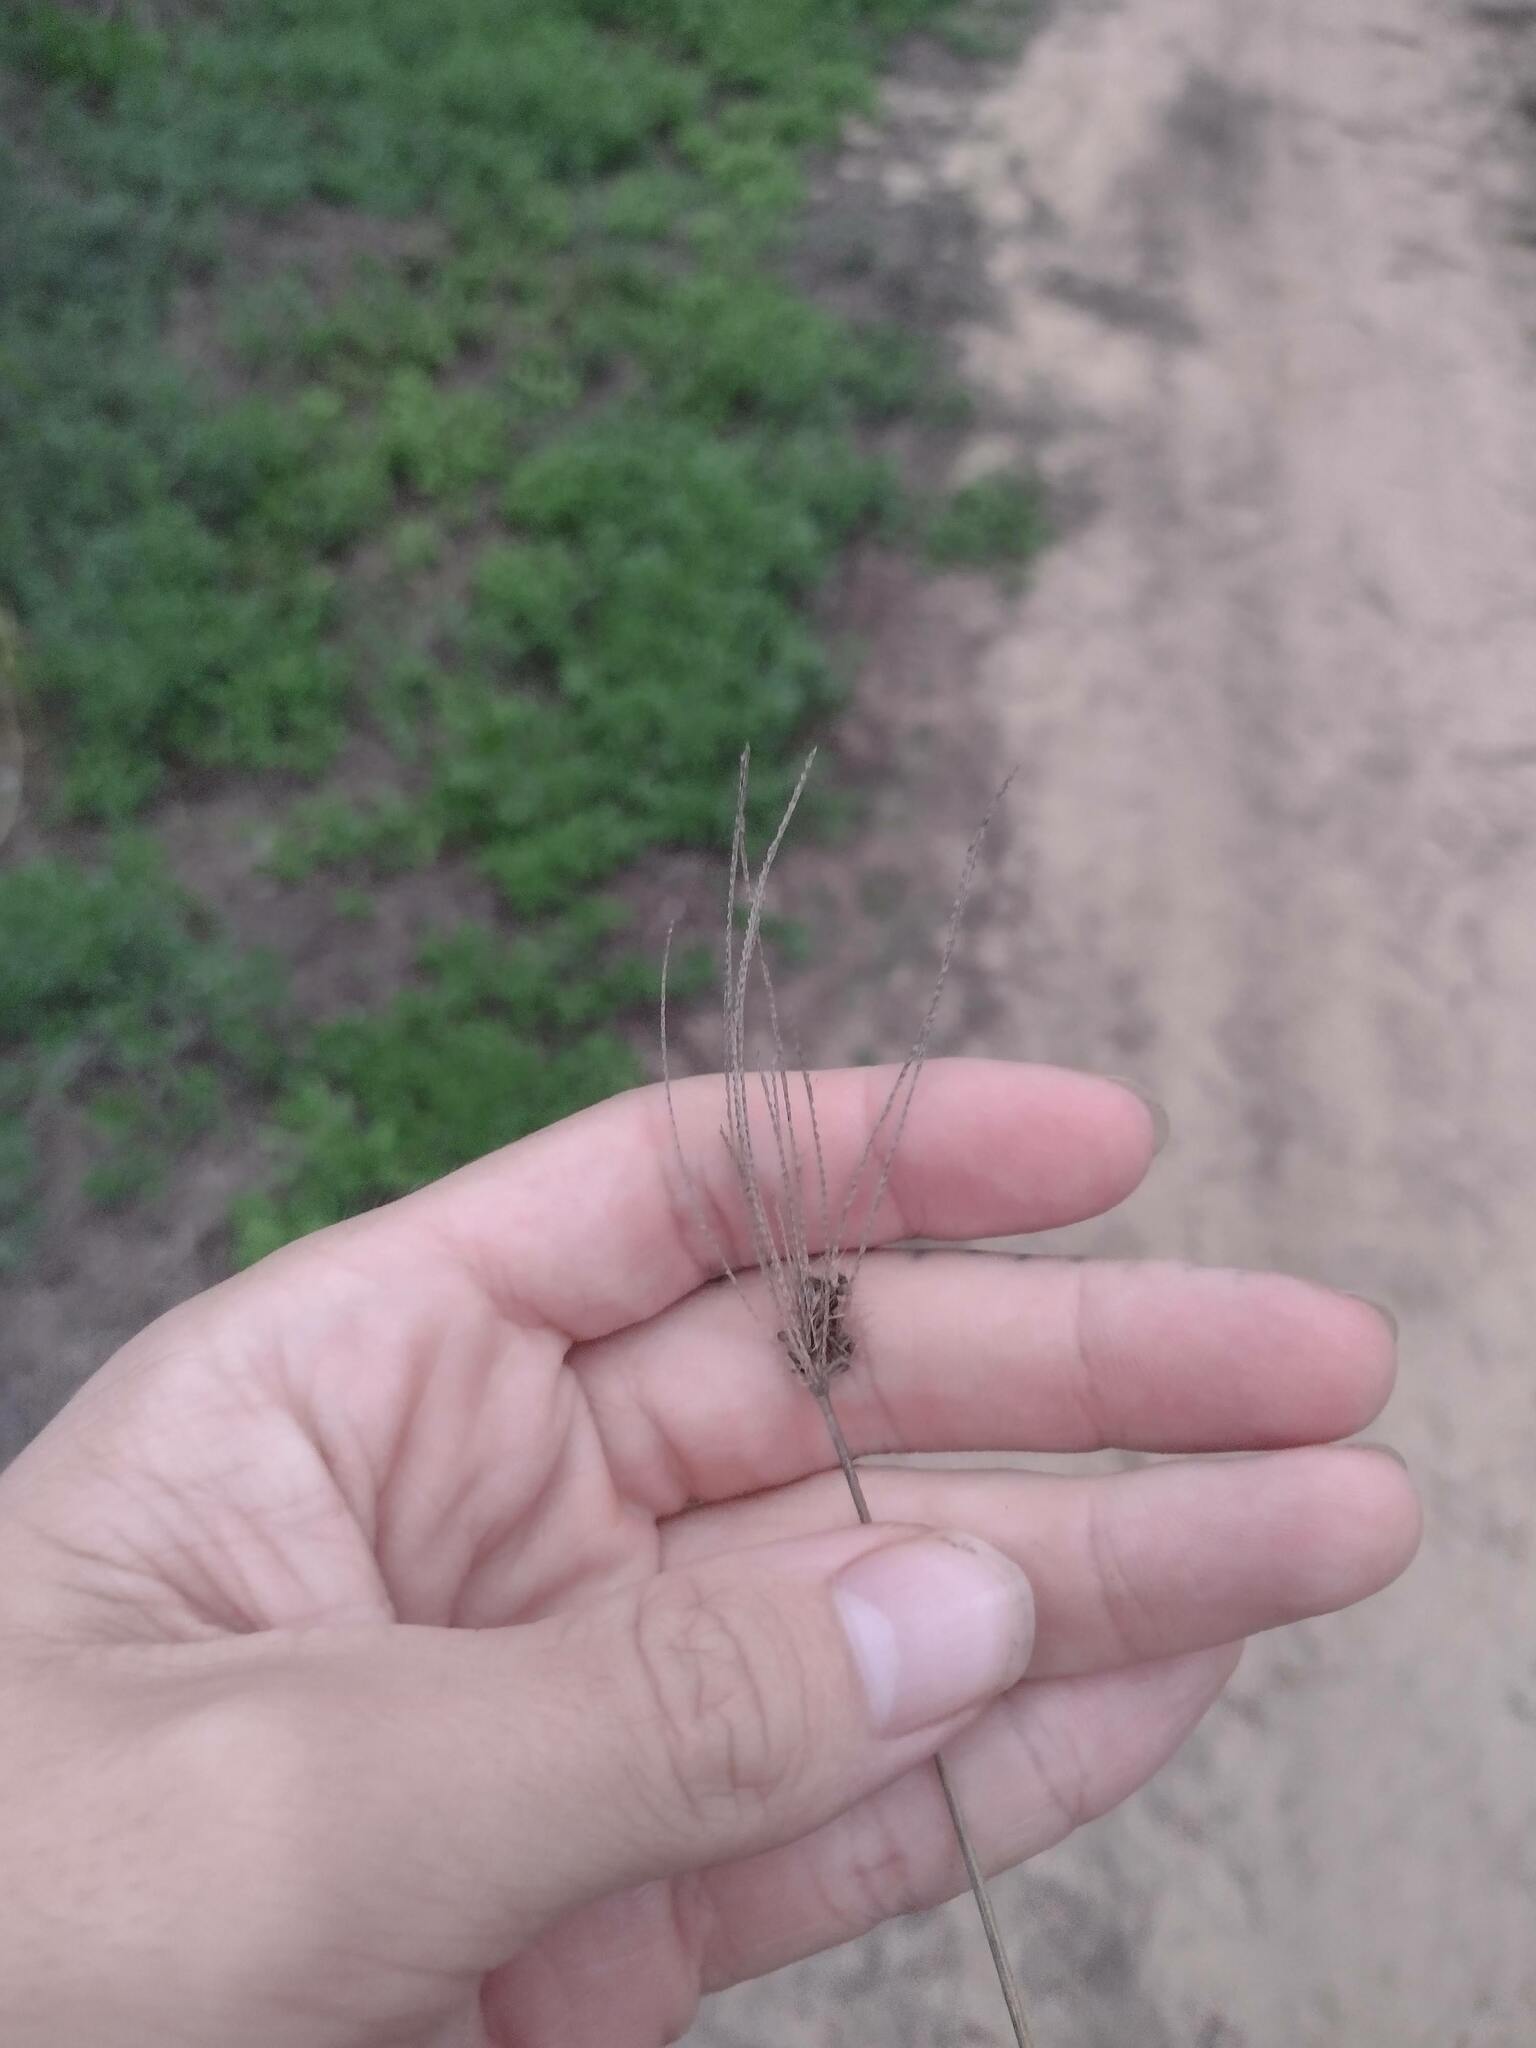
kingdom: Plantae
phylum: Tracheophyta
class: Liliopsida
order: Poales
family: Poaceae
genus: Chloris
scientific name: Chloris barbata
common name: Swollen fingergrass
